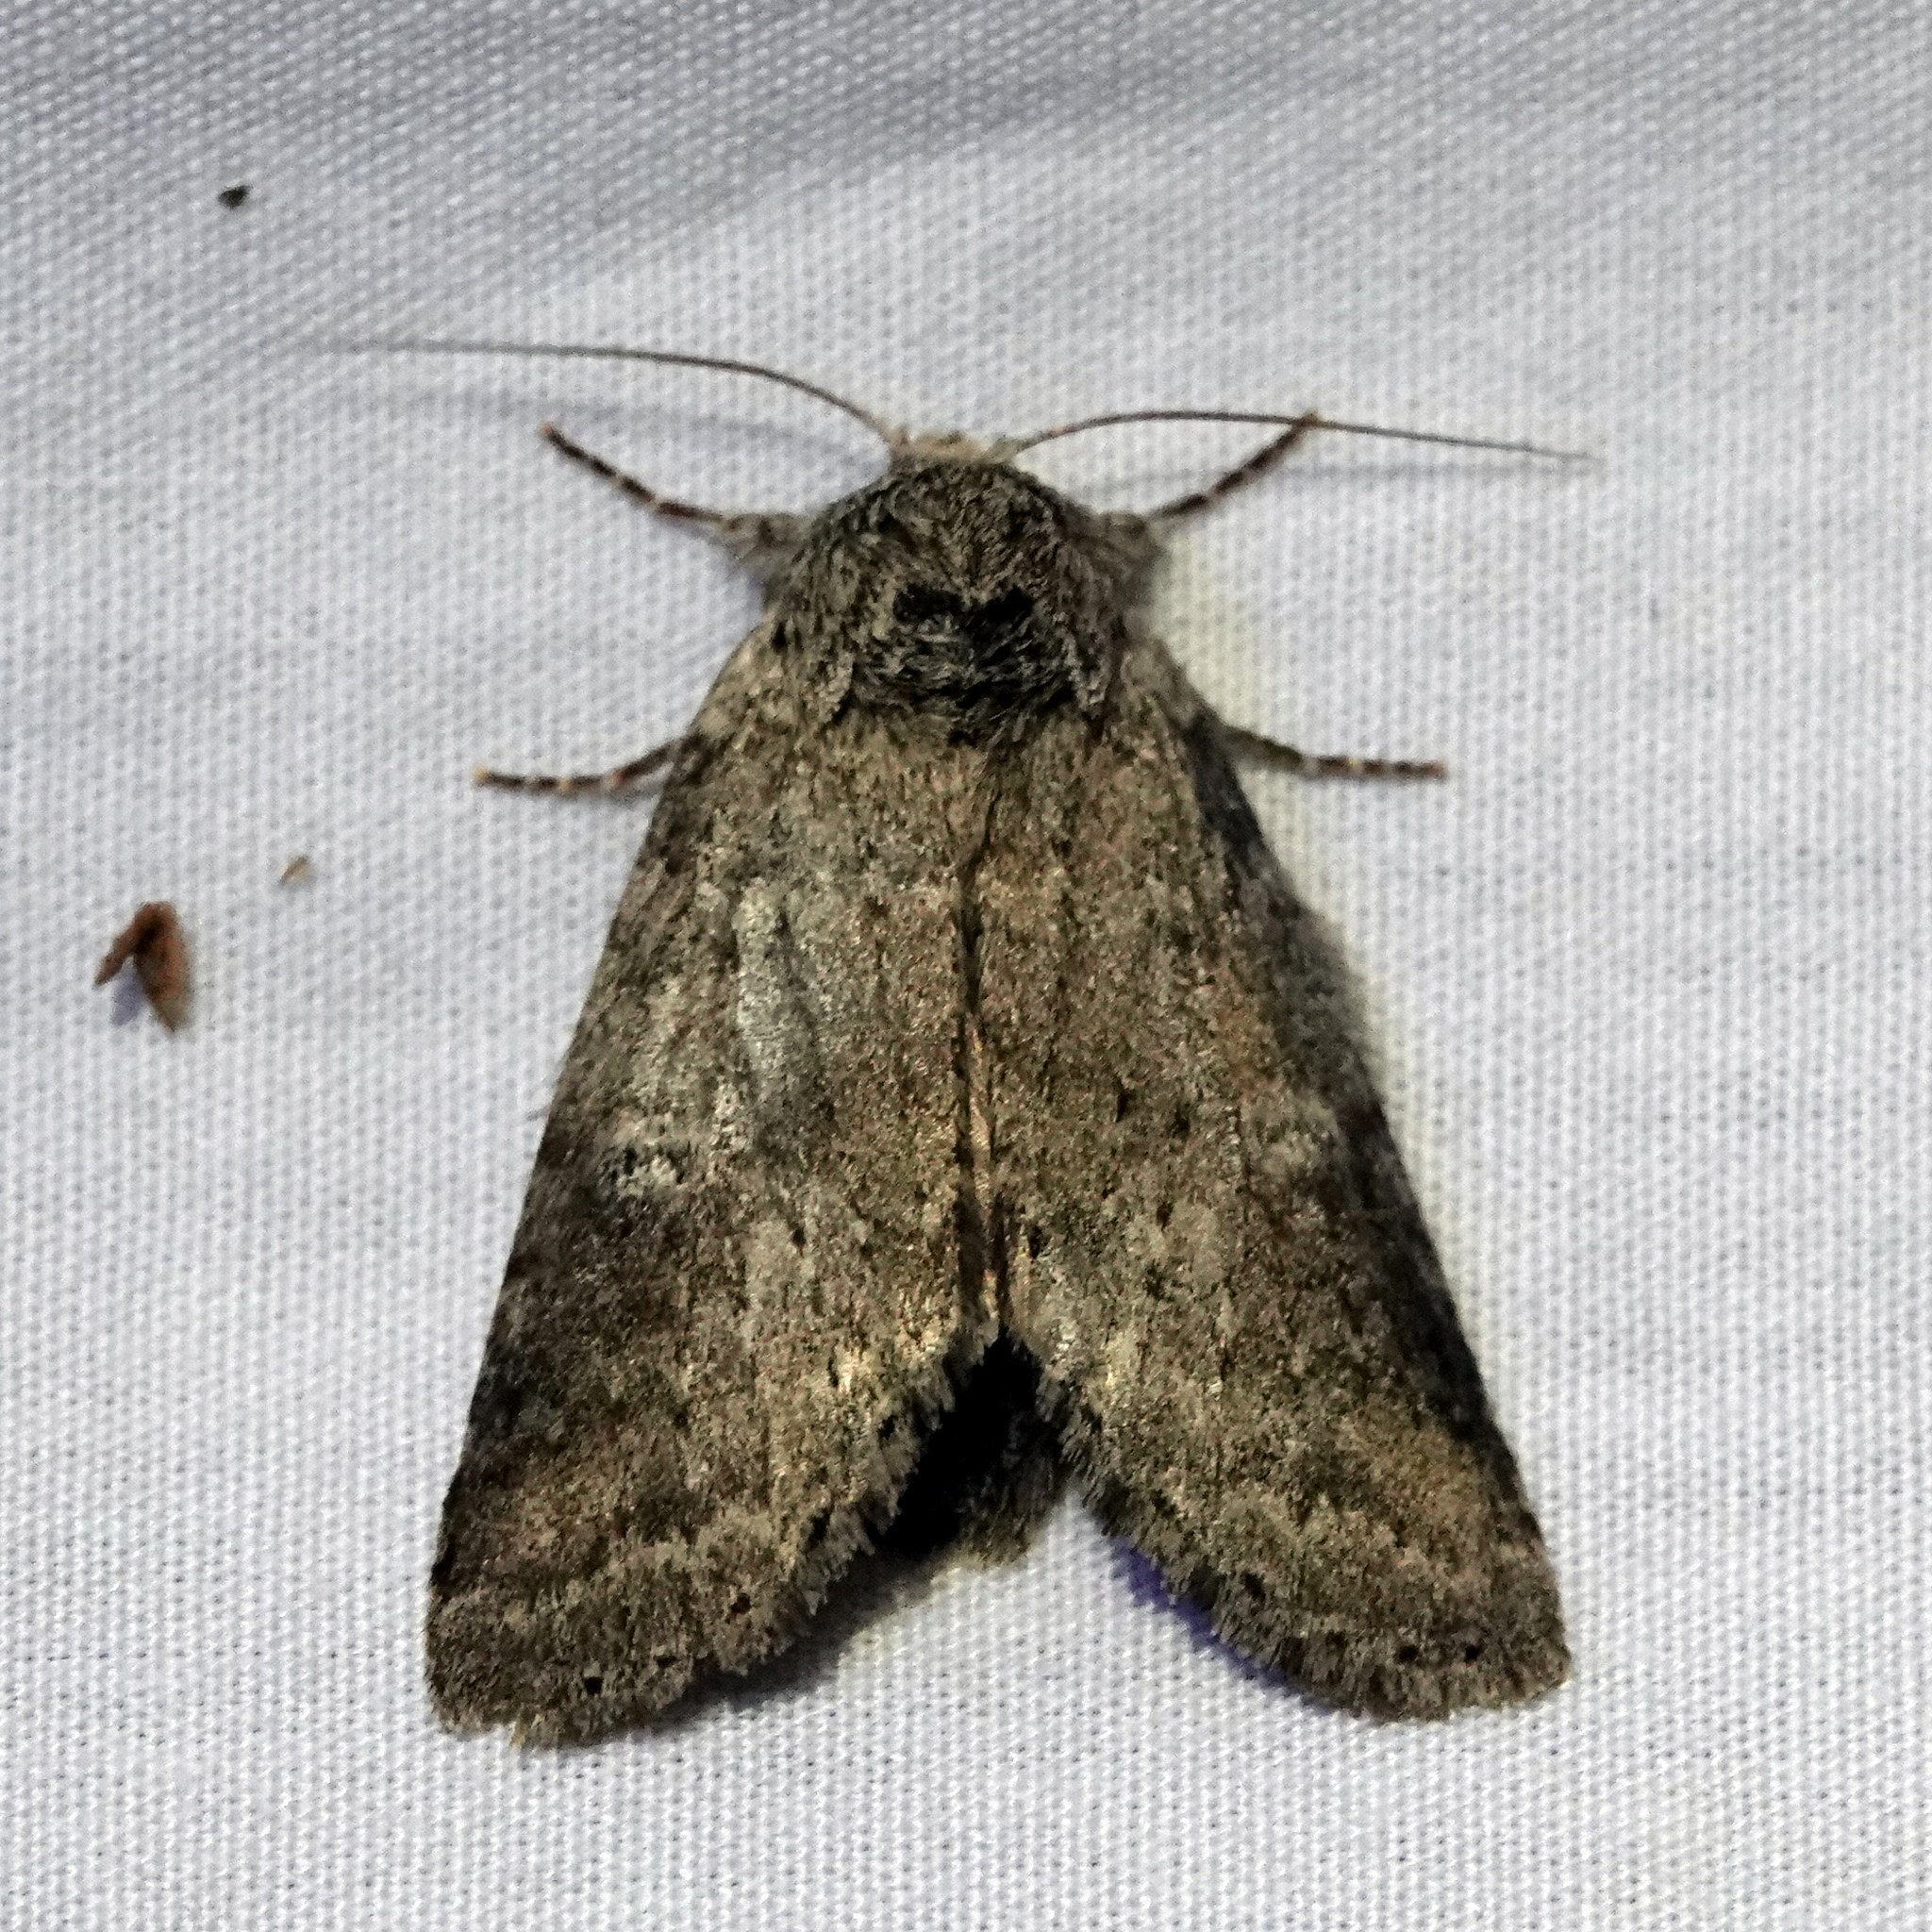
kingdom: Animalia
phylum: Arthropoda
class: Insecta
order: Lepidoptera
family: Notodontidae
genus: Lochmaeus
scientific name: Lochmaeus manteo
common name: Variable oakleaf caterpillar moth
